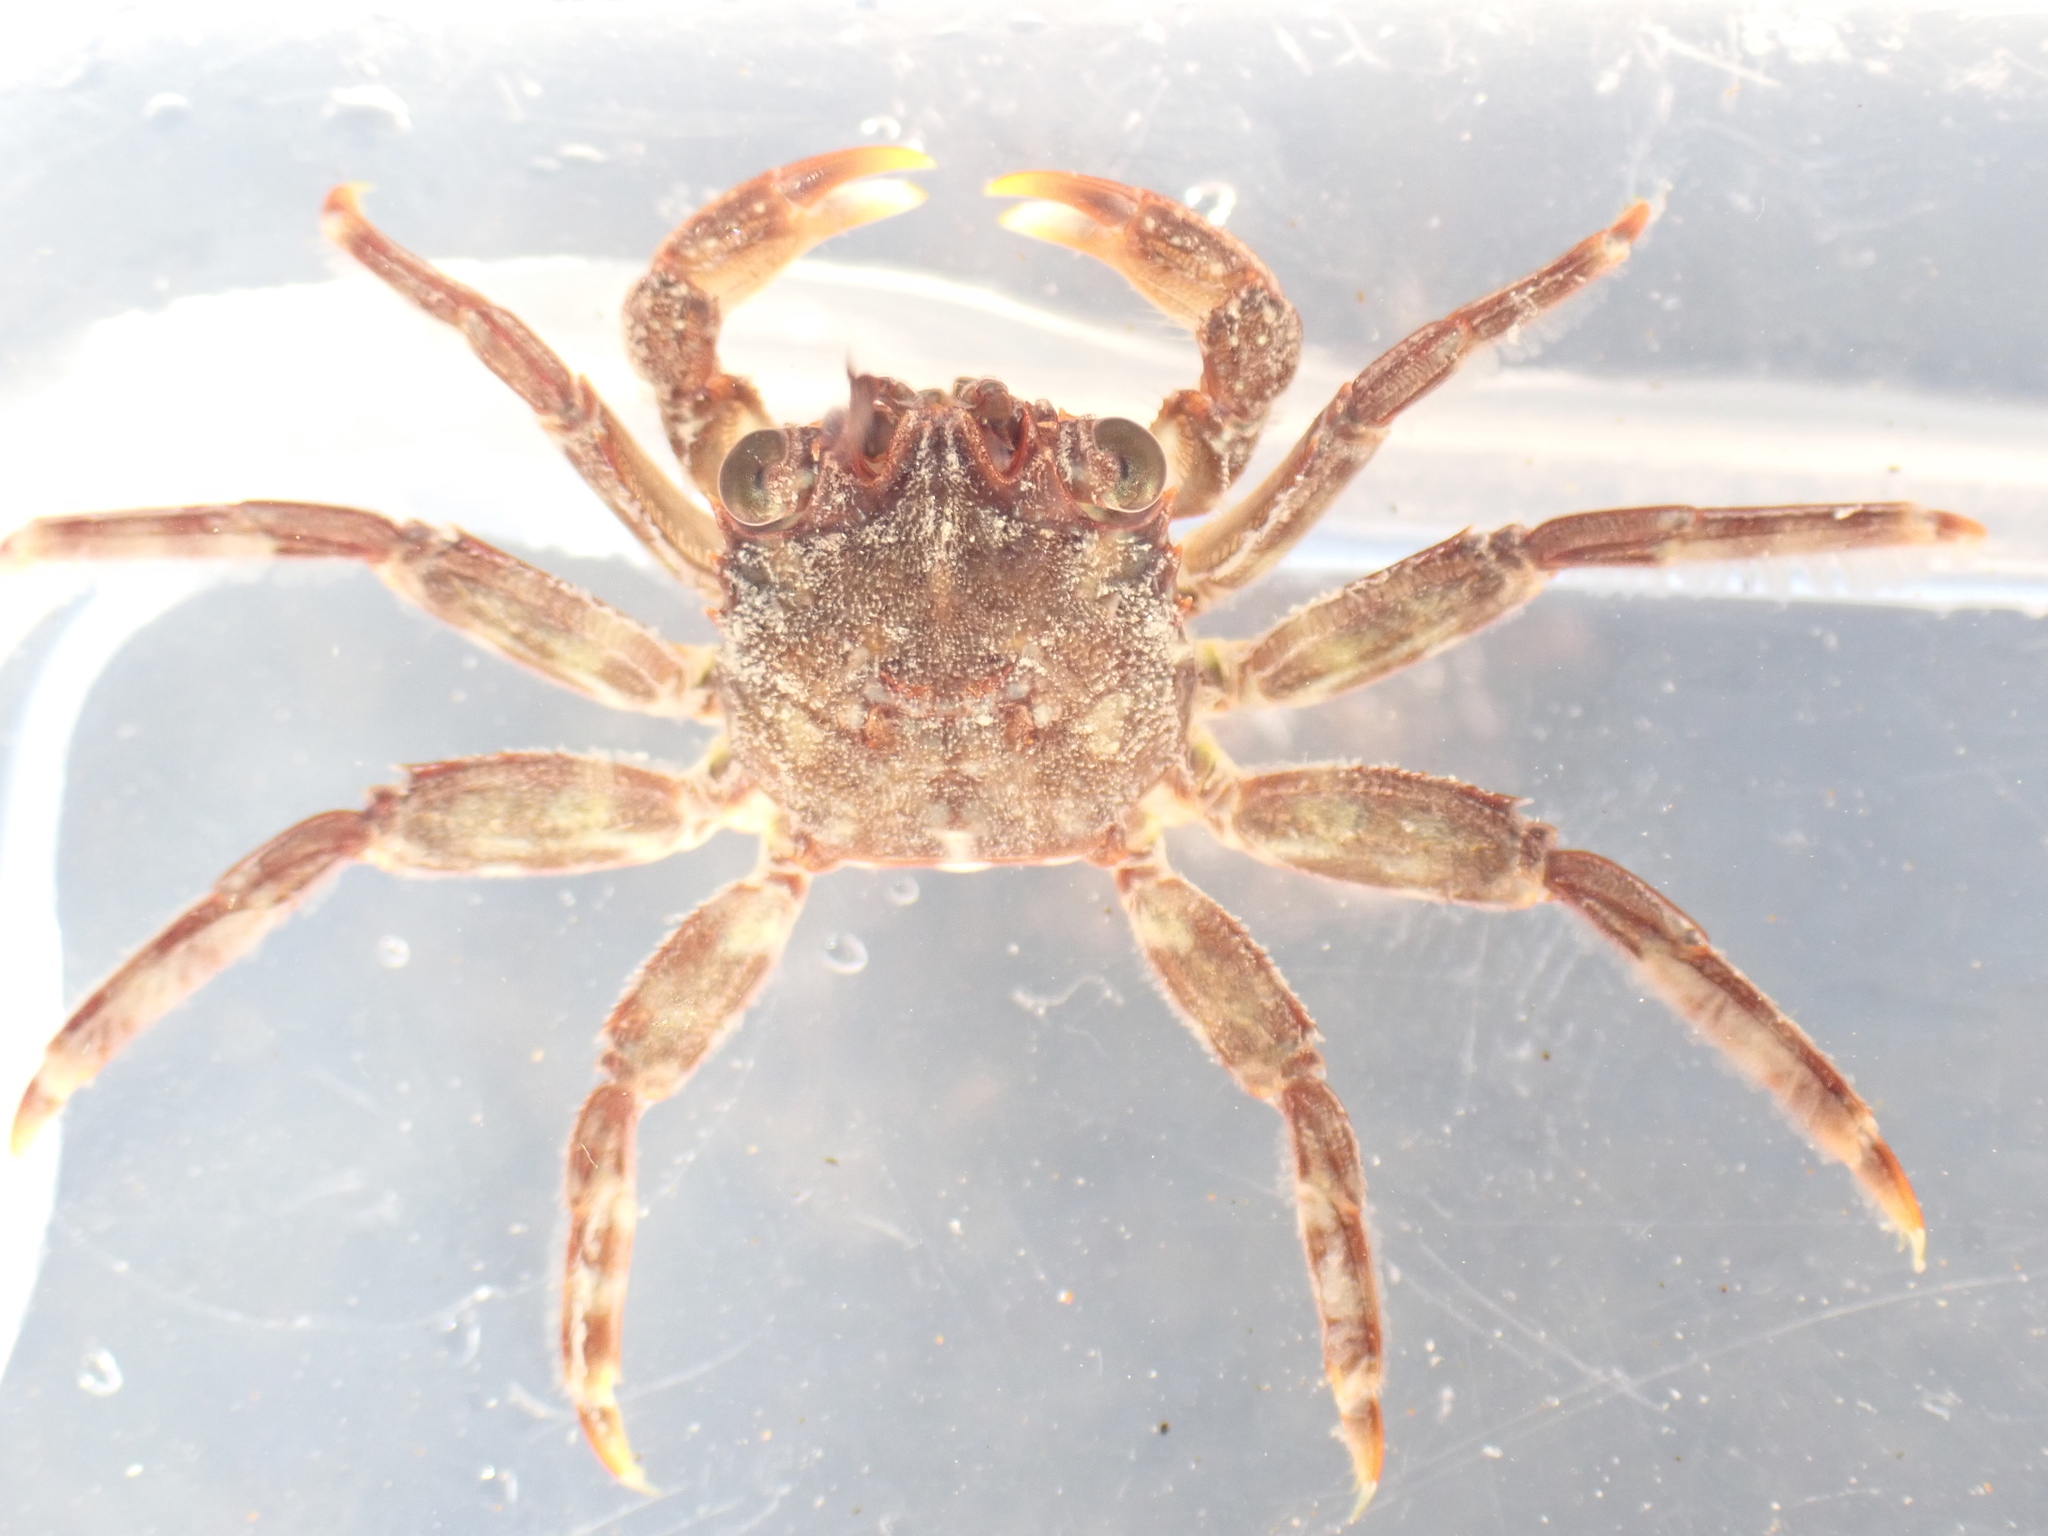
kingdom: Animalia
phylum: Arthropoda
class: Malacostraca
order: Decapoda
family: Plagusiidae
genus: Guinusia
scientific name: Guinusia chabrus
